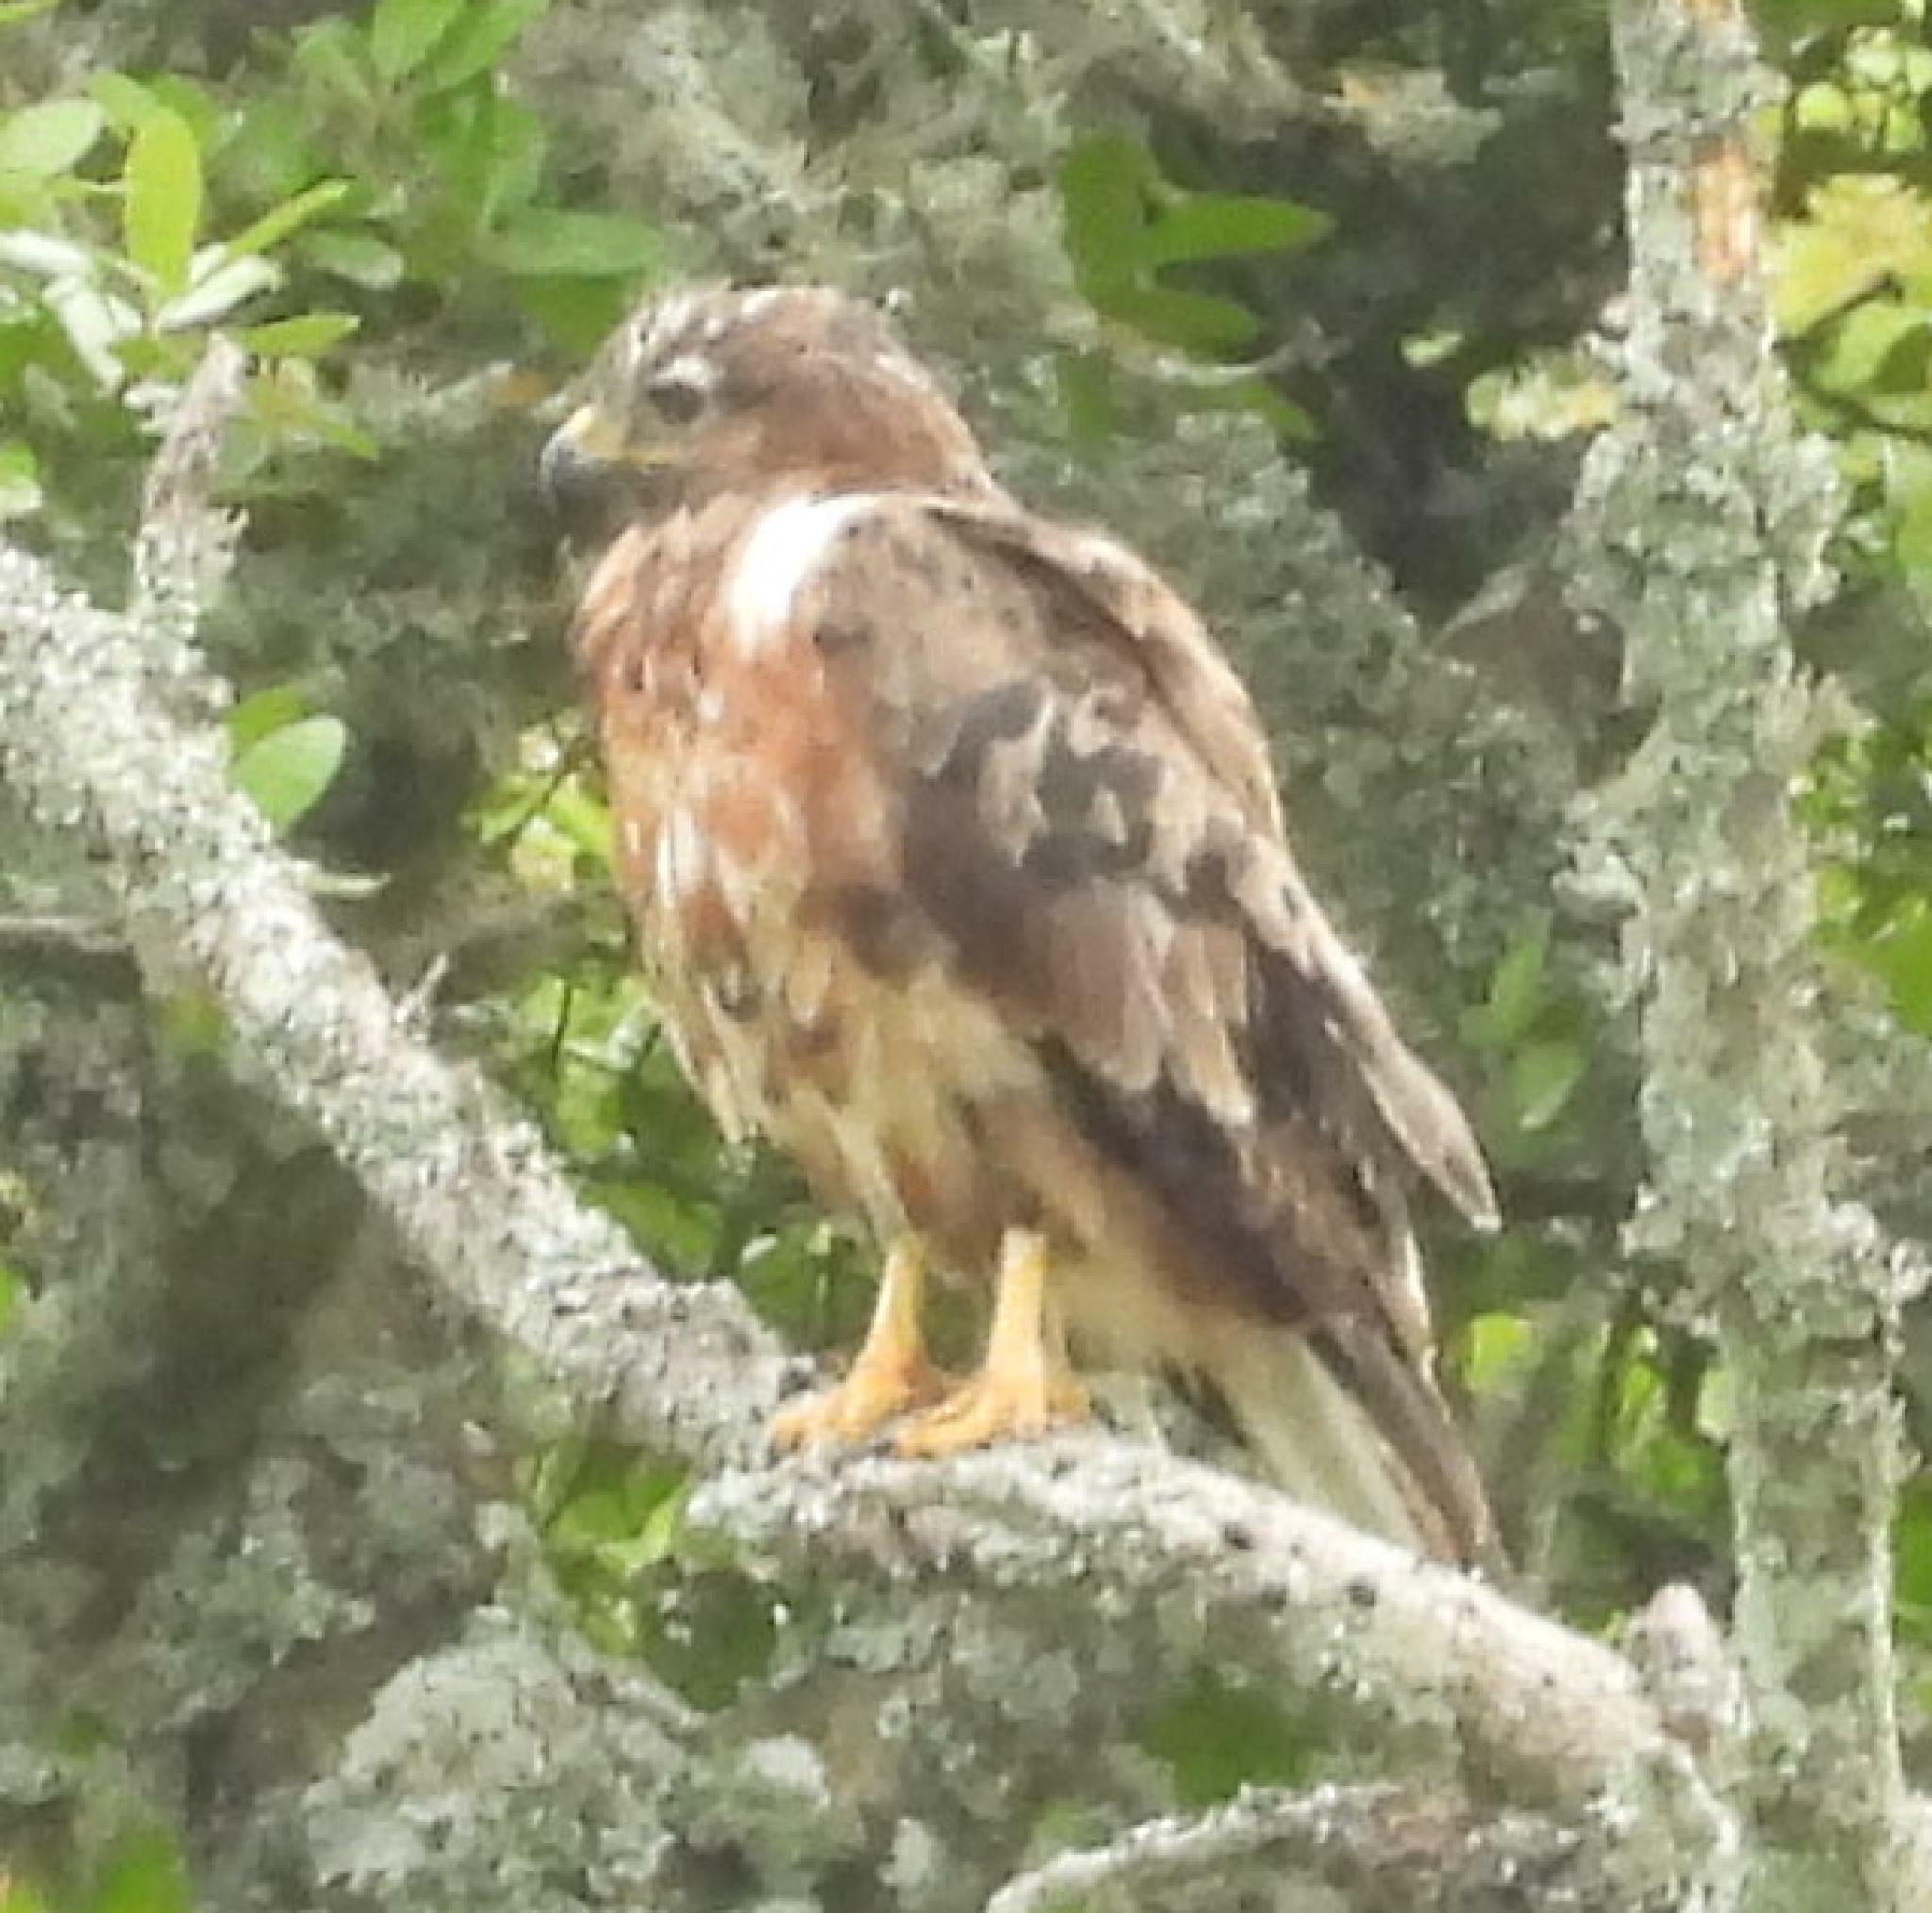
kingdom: Animalia
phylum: Chordata
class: Aves
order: Accipitriformes
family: Accipitridae
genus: Buteo
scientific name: Buteo rufofuscus
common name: Jackal buzzard
